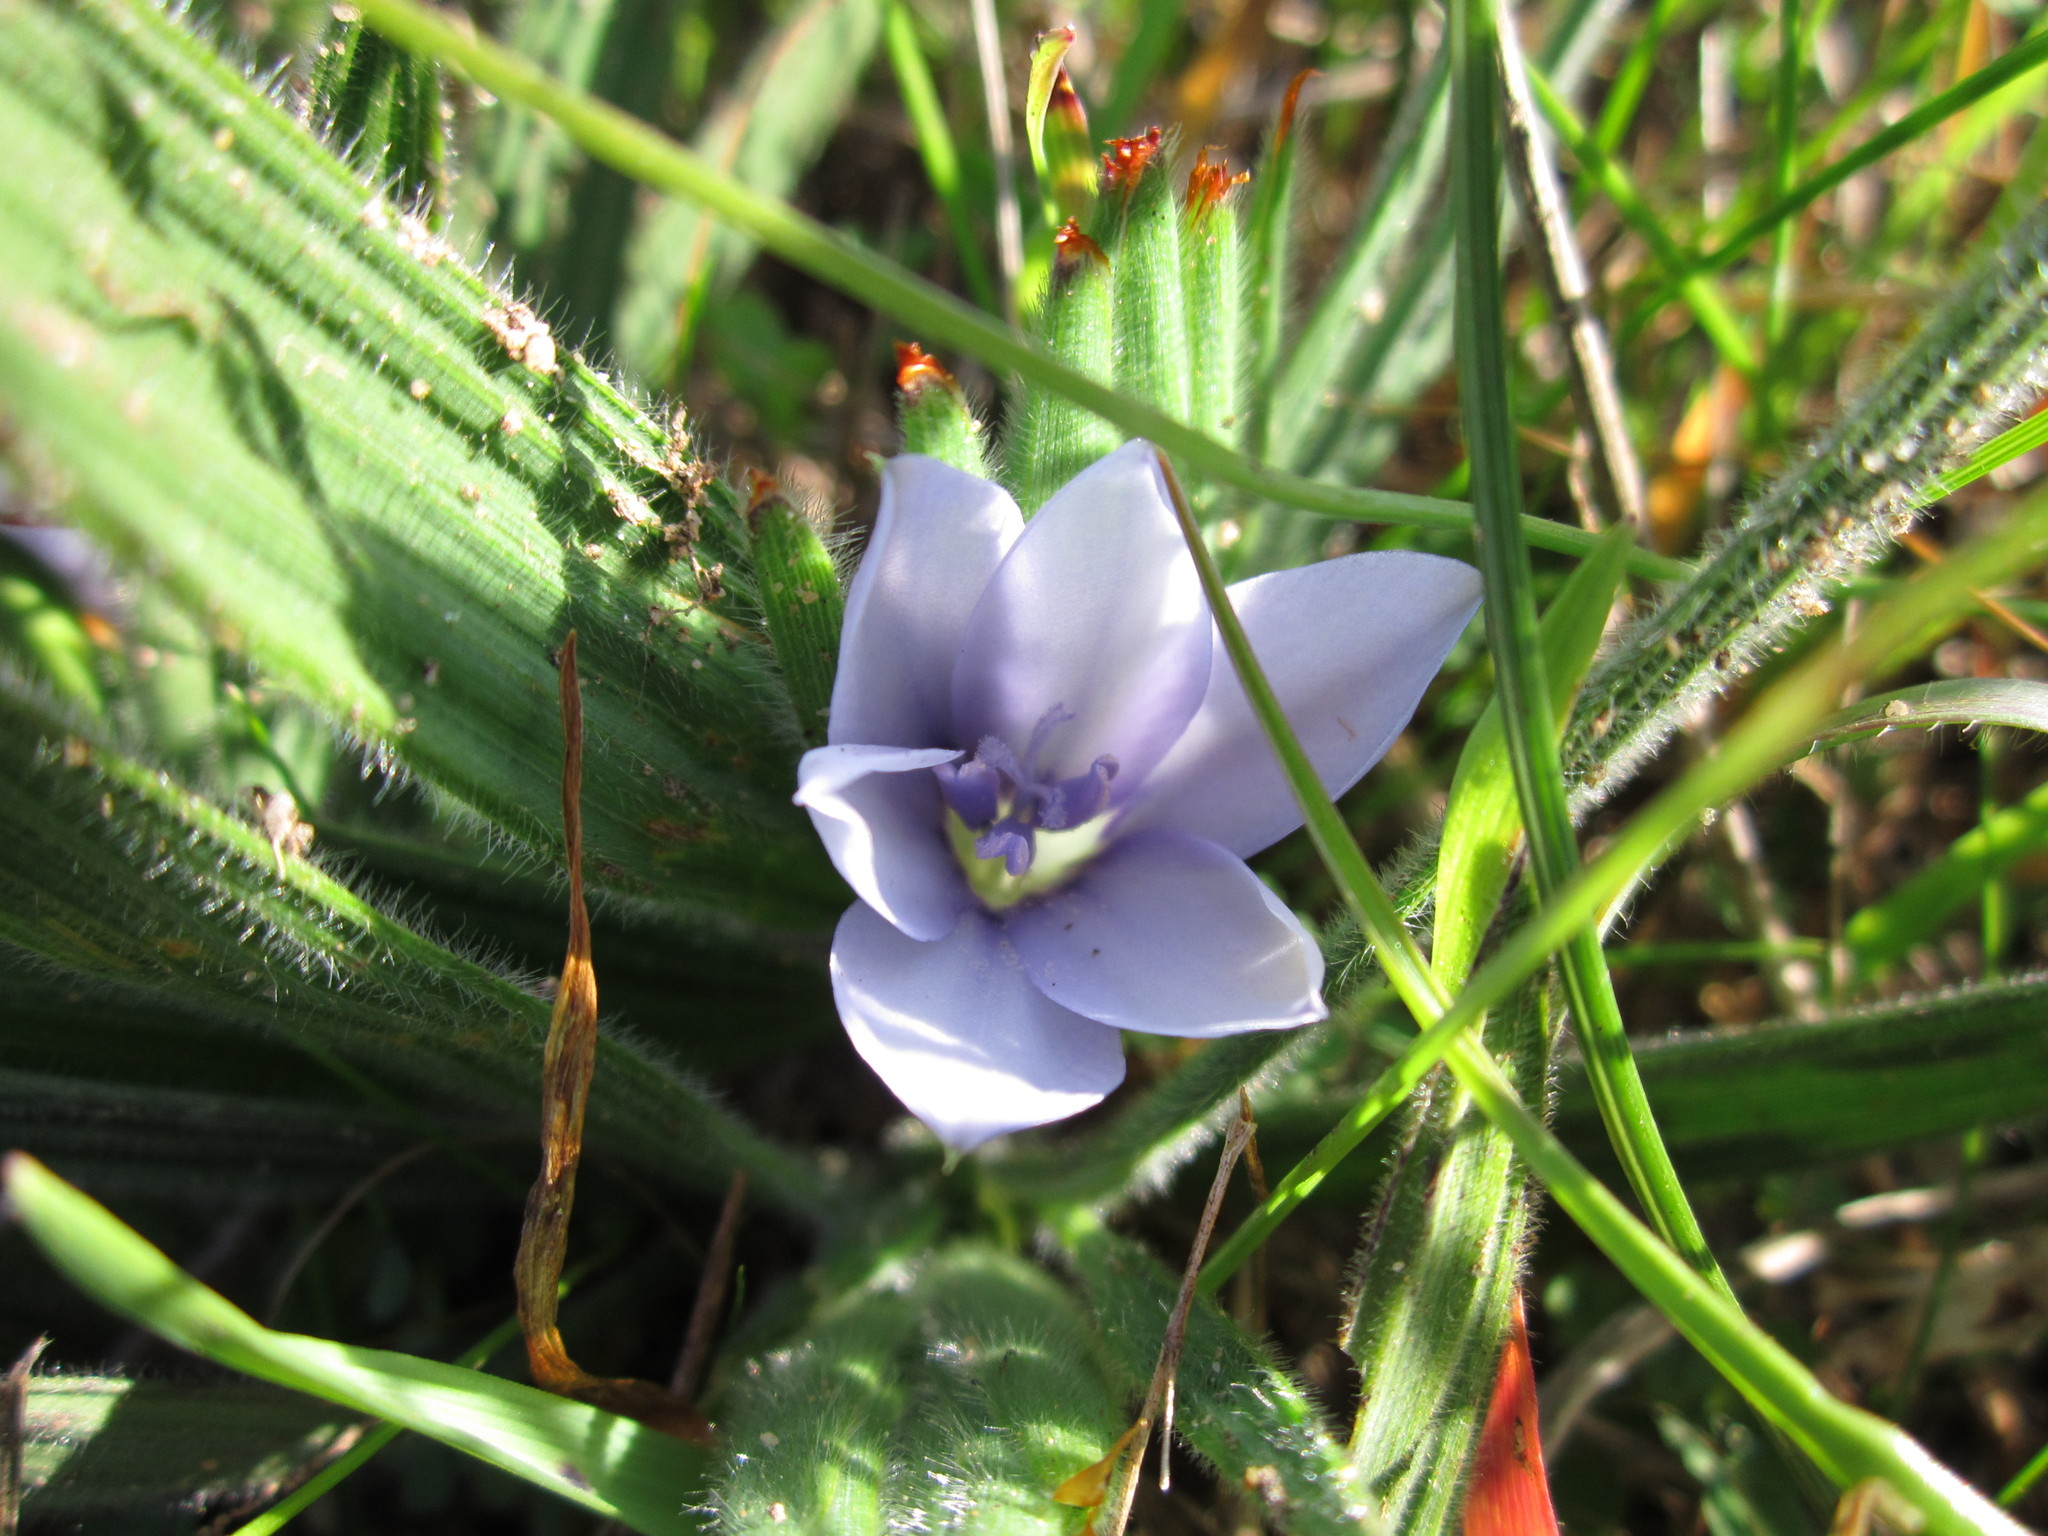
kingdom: Plantae
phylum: Tracheophyta
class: Liliopsida
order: Asparagales
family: Iridaceae
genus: Babiana
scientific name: Babiana villosula
